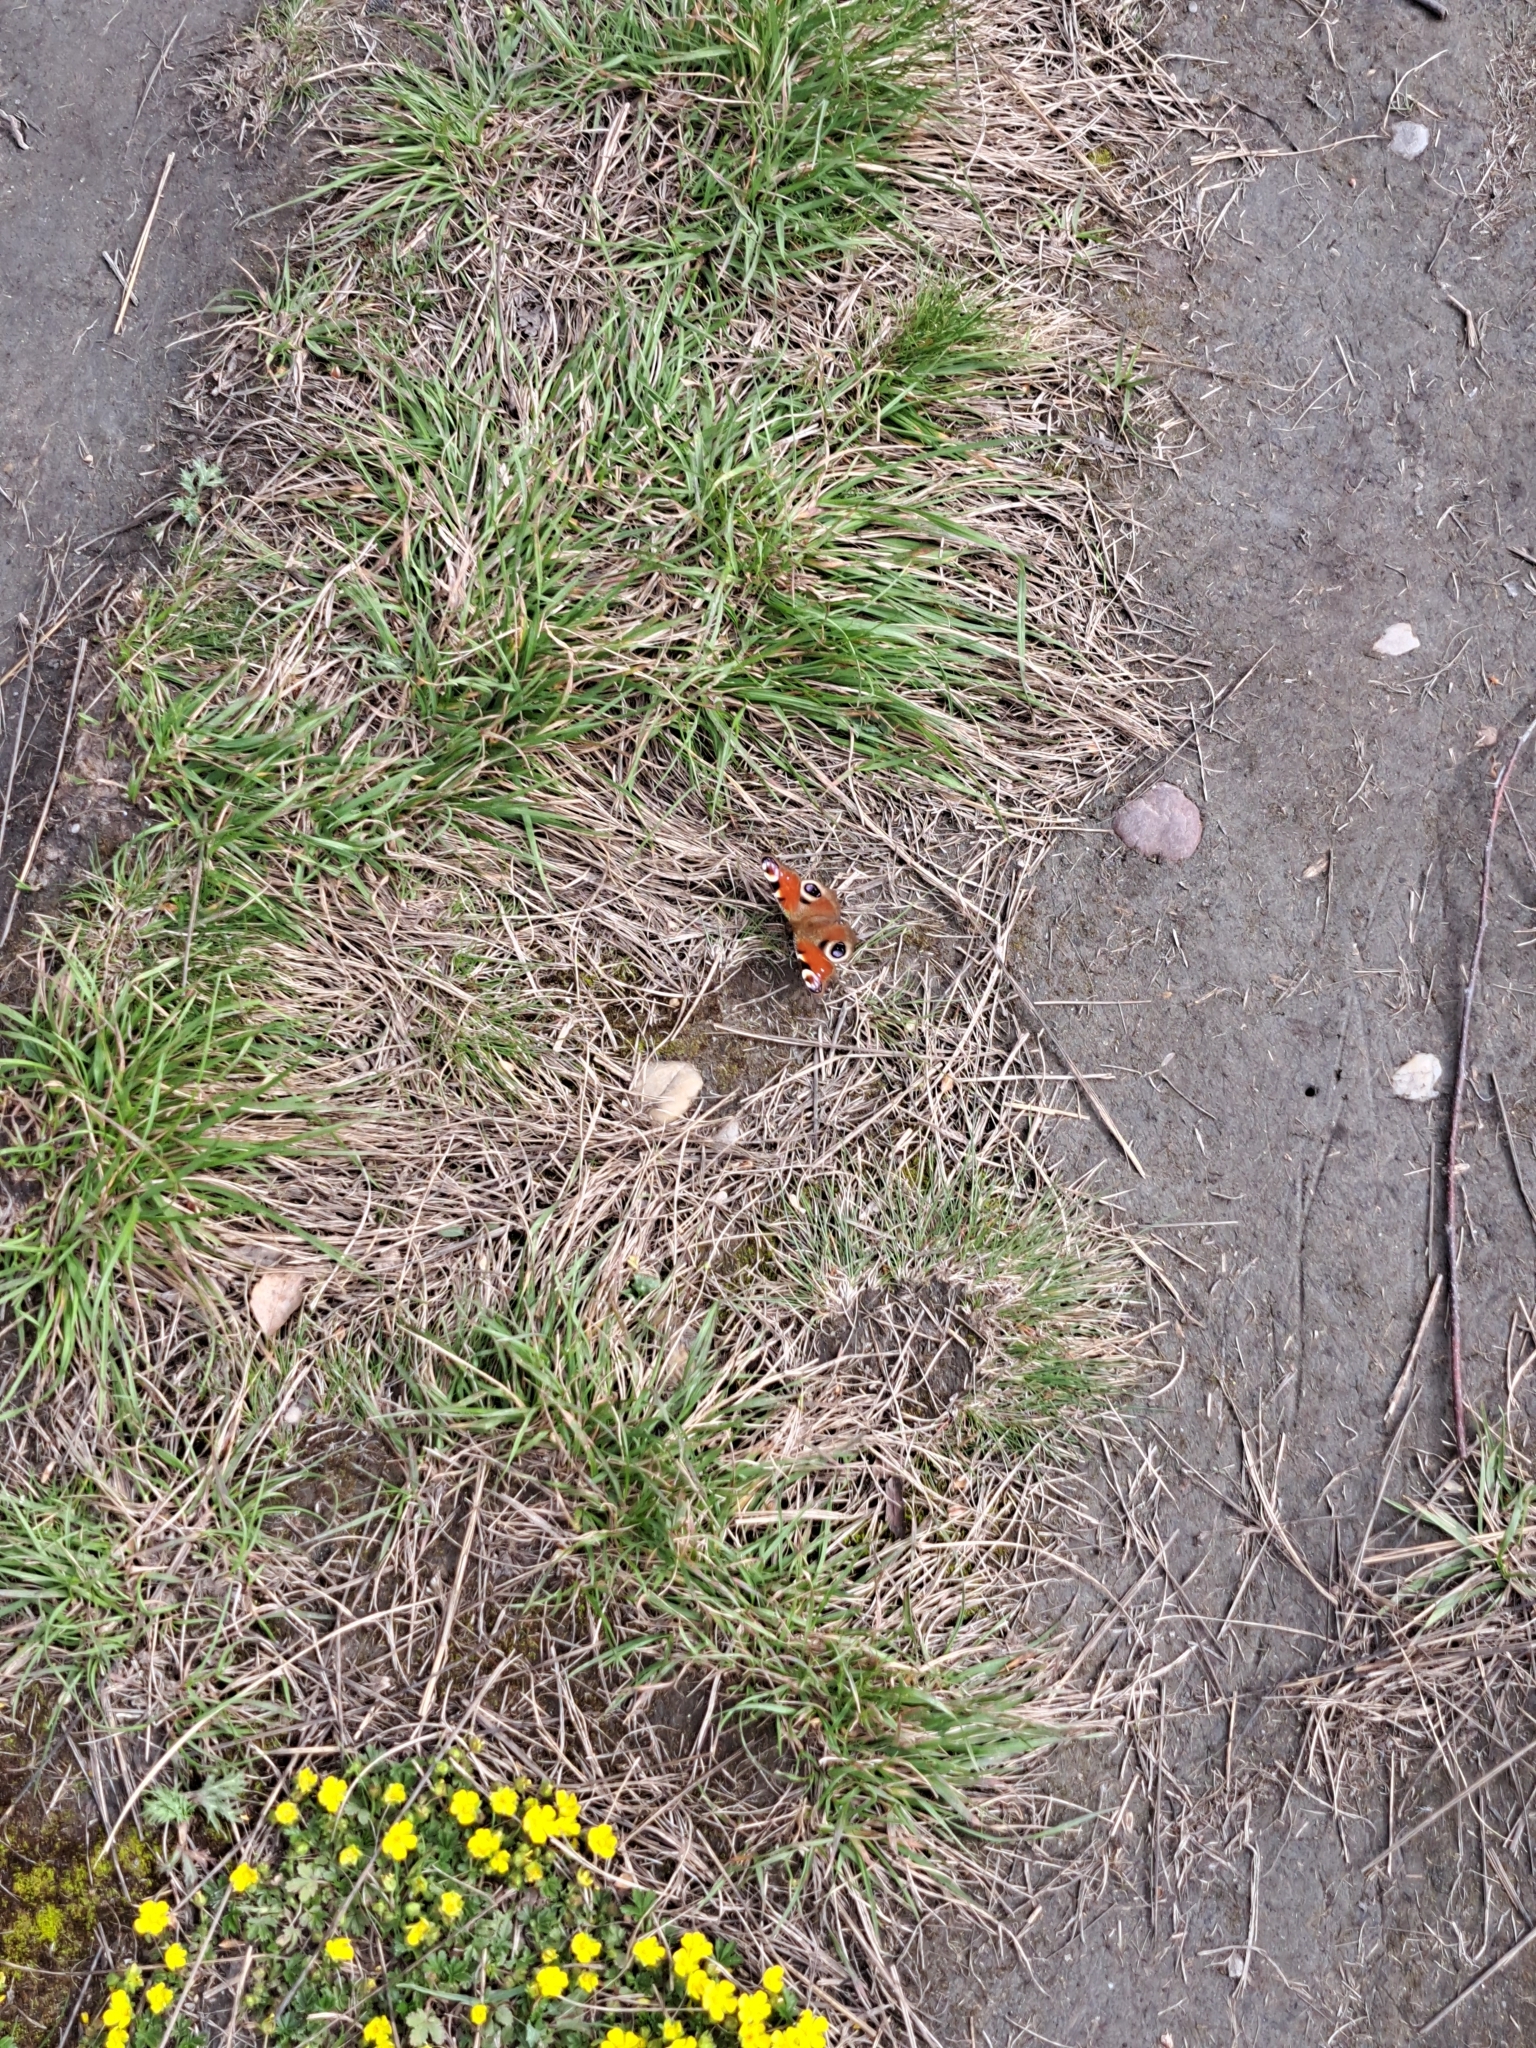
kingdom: Animalia
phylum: Arthropoda
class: Insecta
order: Lepidoptera
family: Nymphalidae
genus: Aglais
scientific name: Aglais io
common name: Peacock
